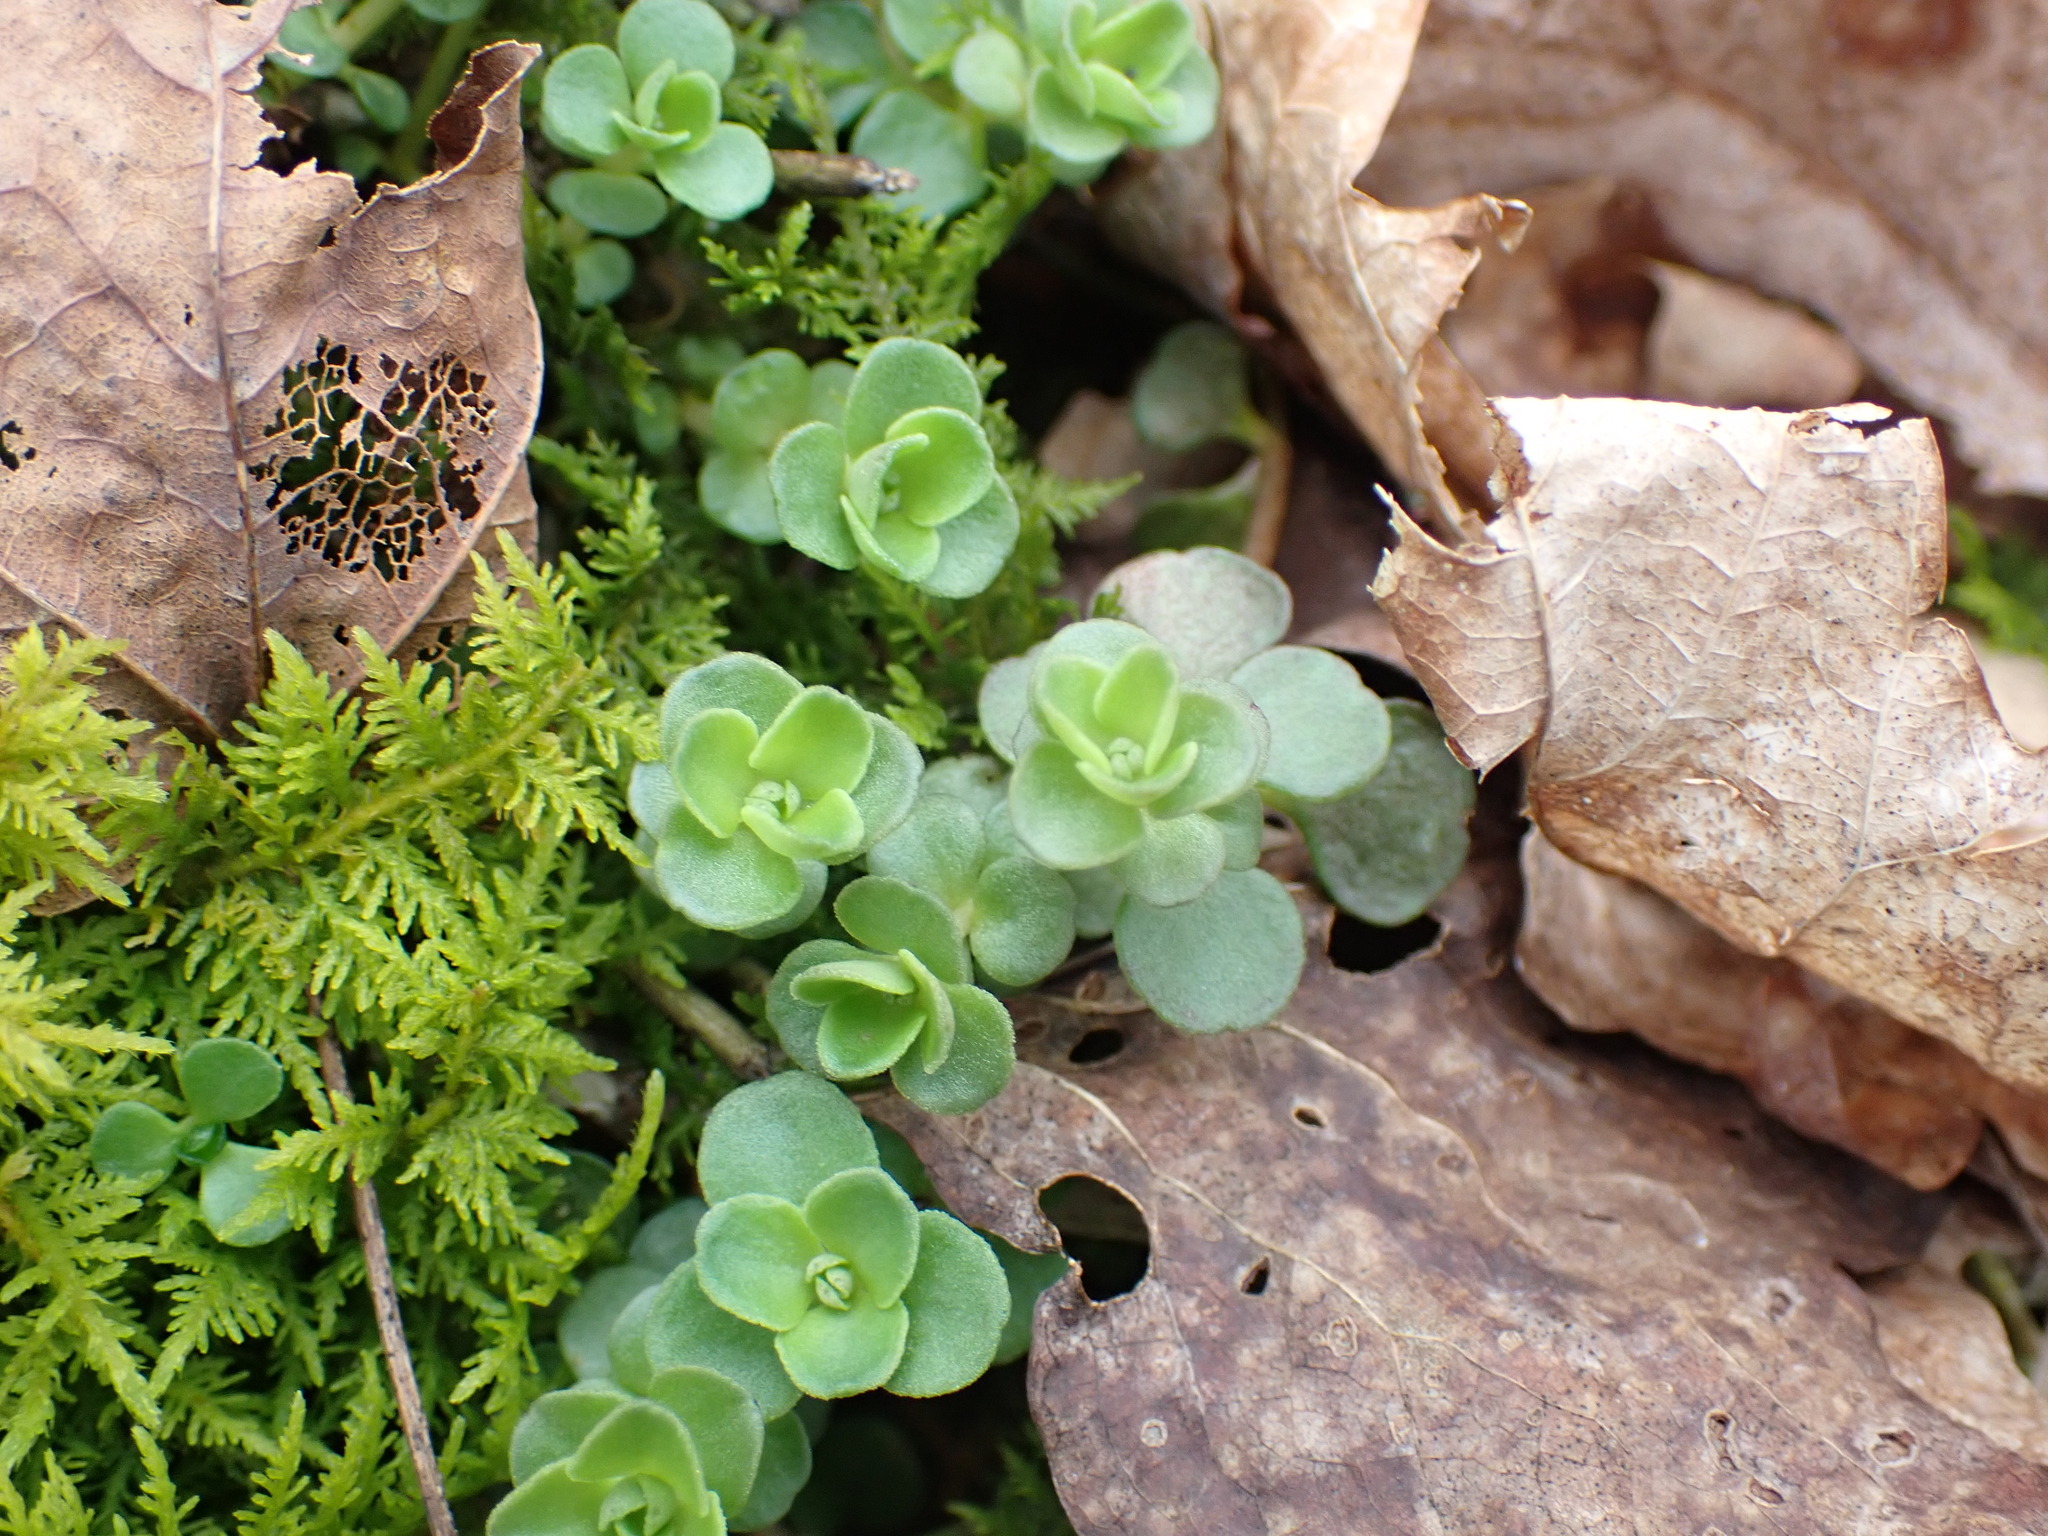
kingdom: Plantae
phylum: Tracheophyta
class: Magnoliopsida
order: Saxifragales
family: Crassulaceae
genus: Sedum
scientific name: Sedum ternatum
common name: Wild stonecrop
